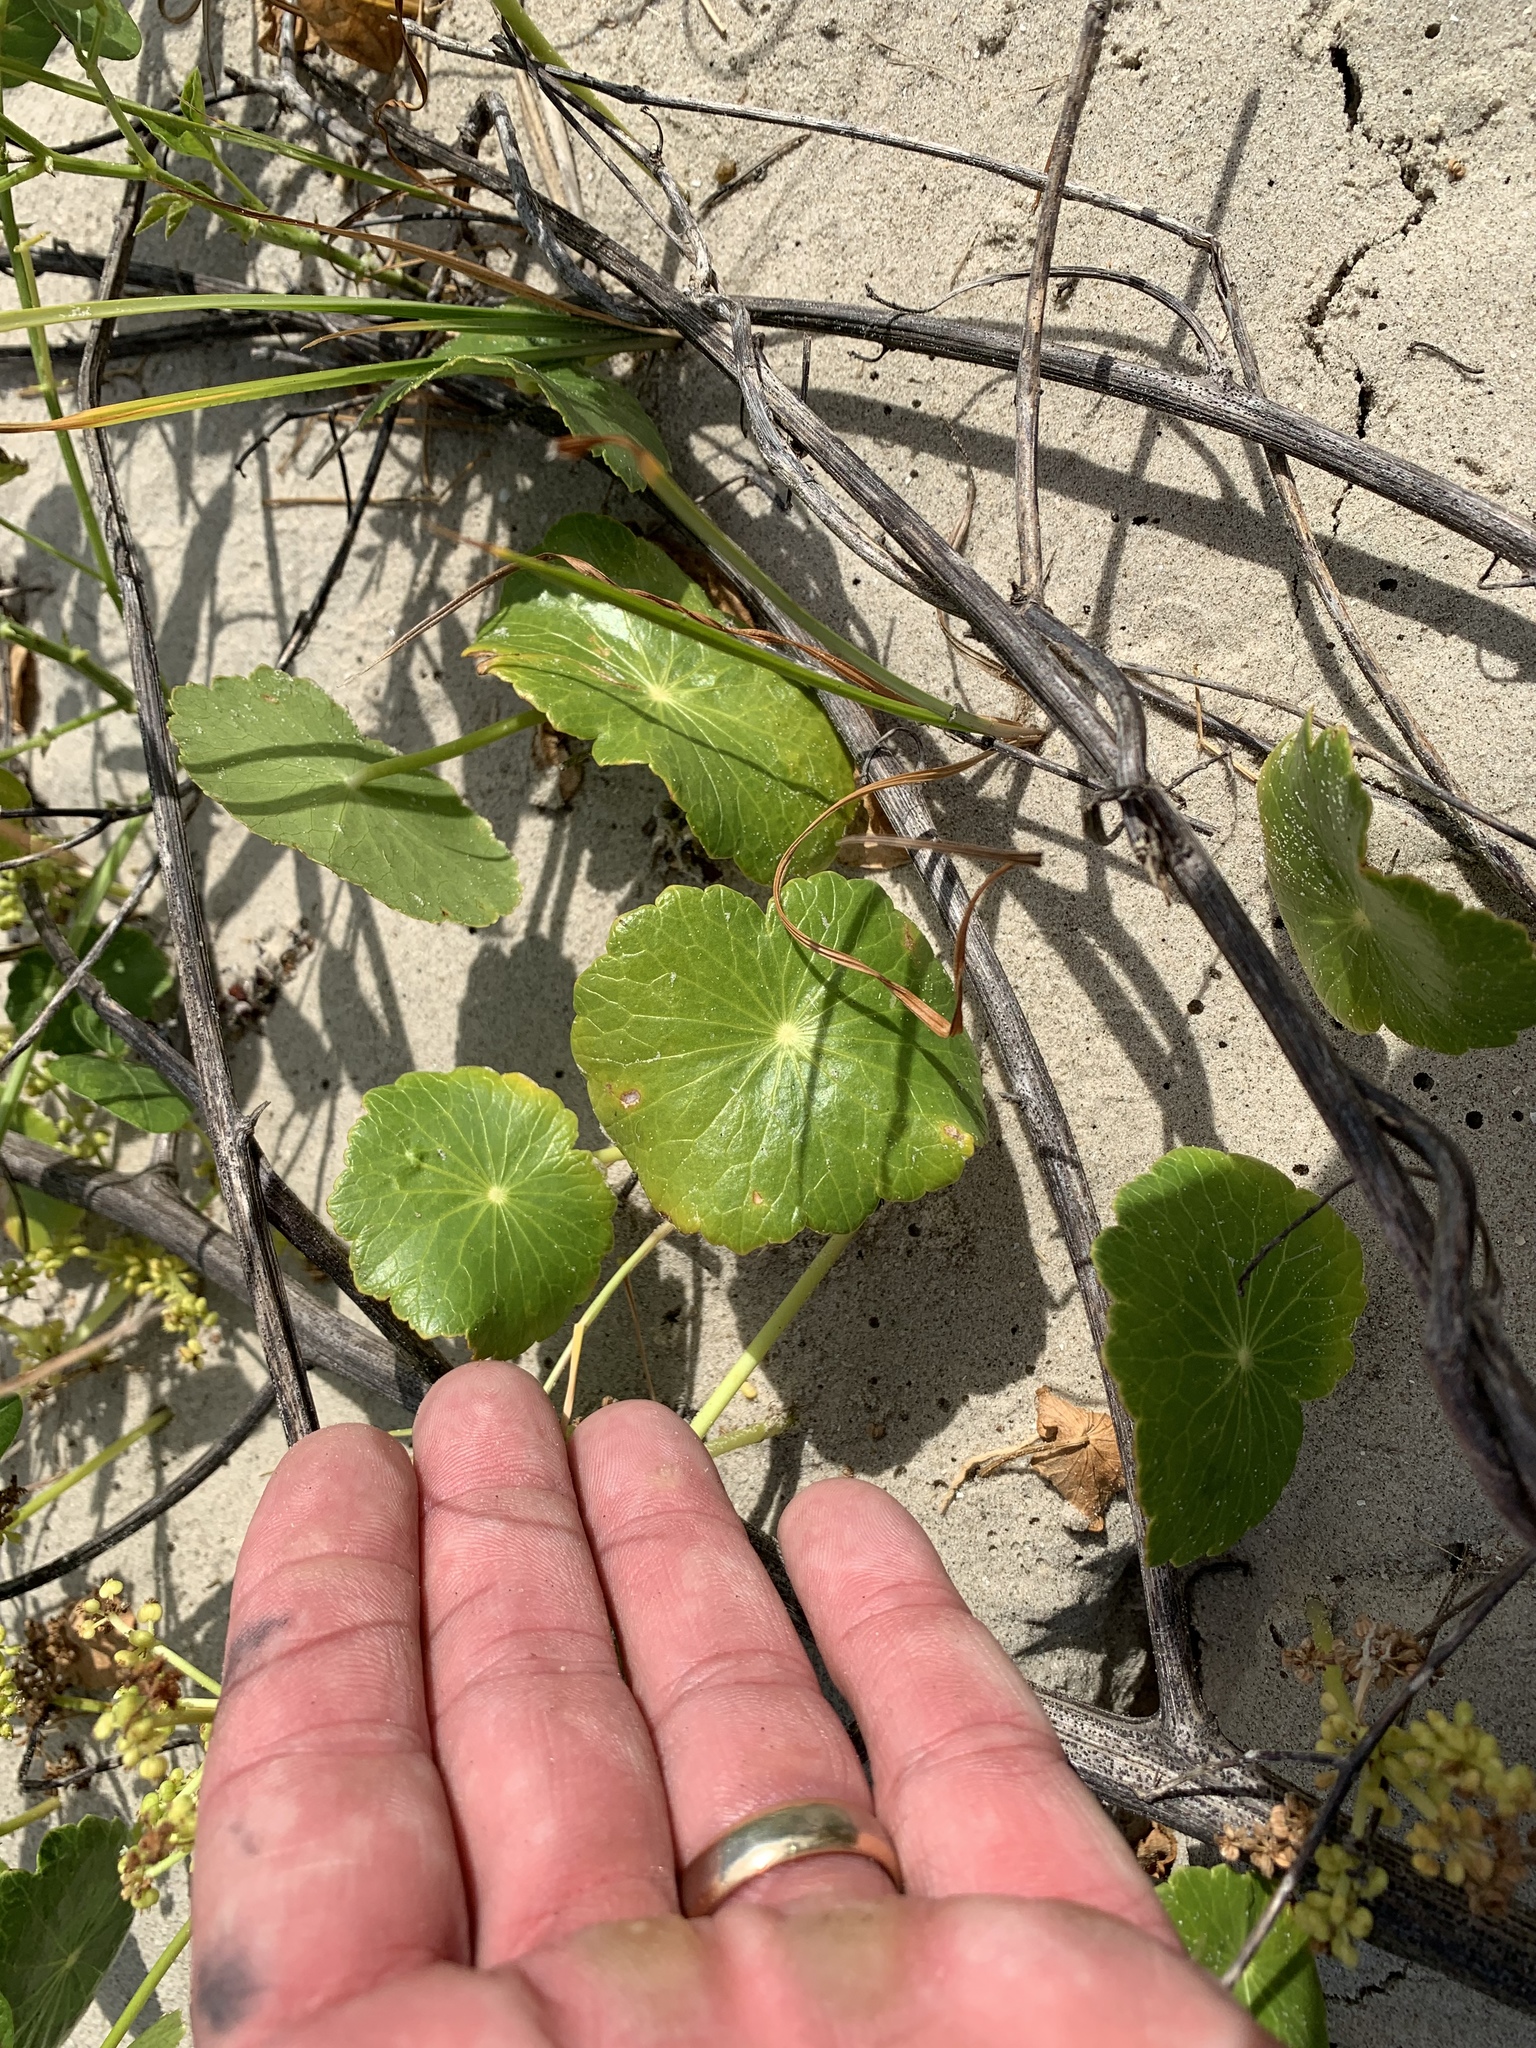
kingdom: Plantae
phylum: Tracheophyta
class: Magnoliopsida
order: Apiales
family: Araliaceae
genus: Hydrocotyle
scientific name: Hydrocotyle bonariensis
